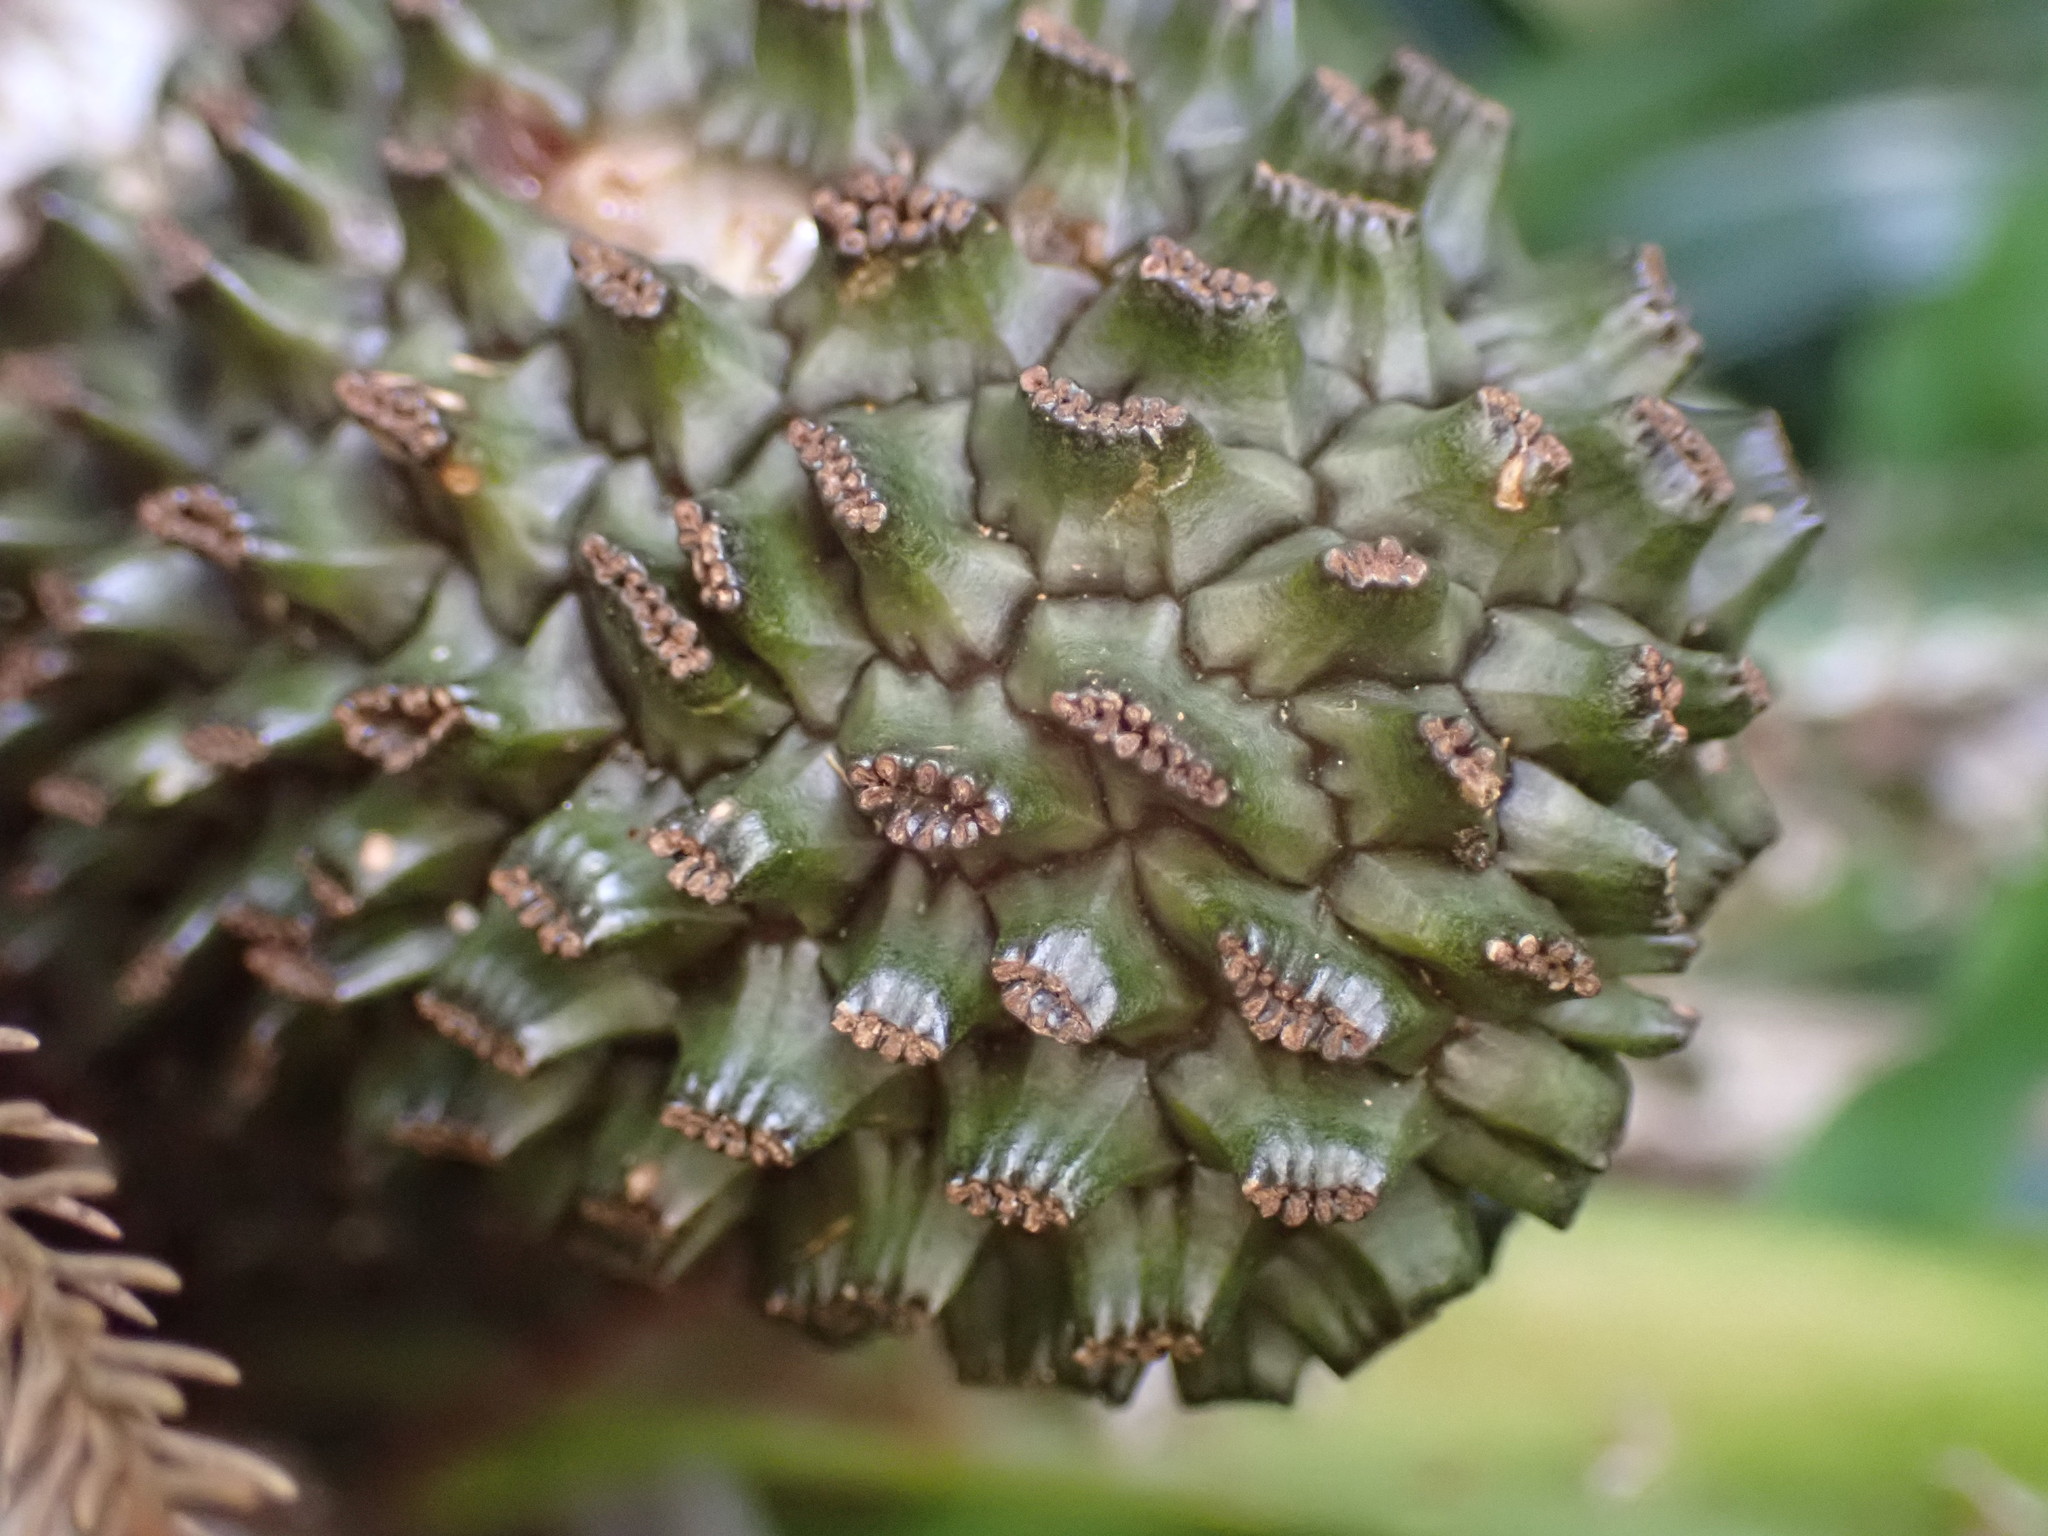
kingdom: Plantae
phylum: Tracheophyta
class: Liliopsida
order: Pandanales
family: Pandanaceae
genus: Freycinetia
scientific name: Freycinetia banksii
